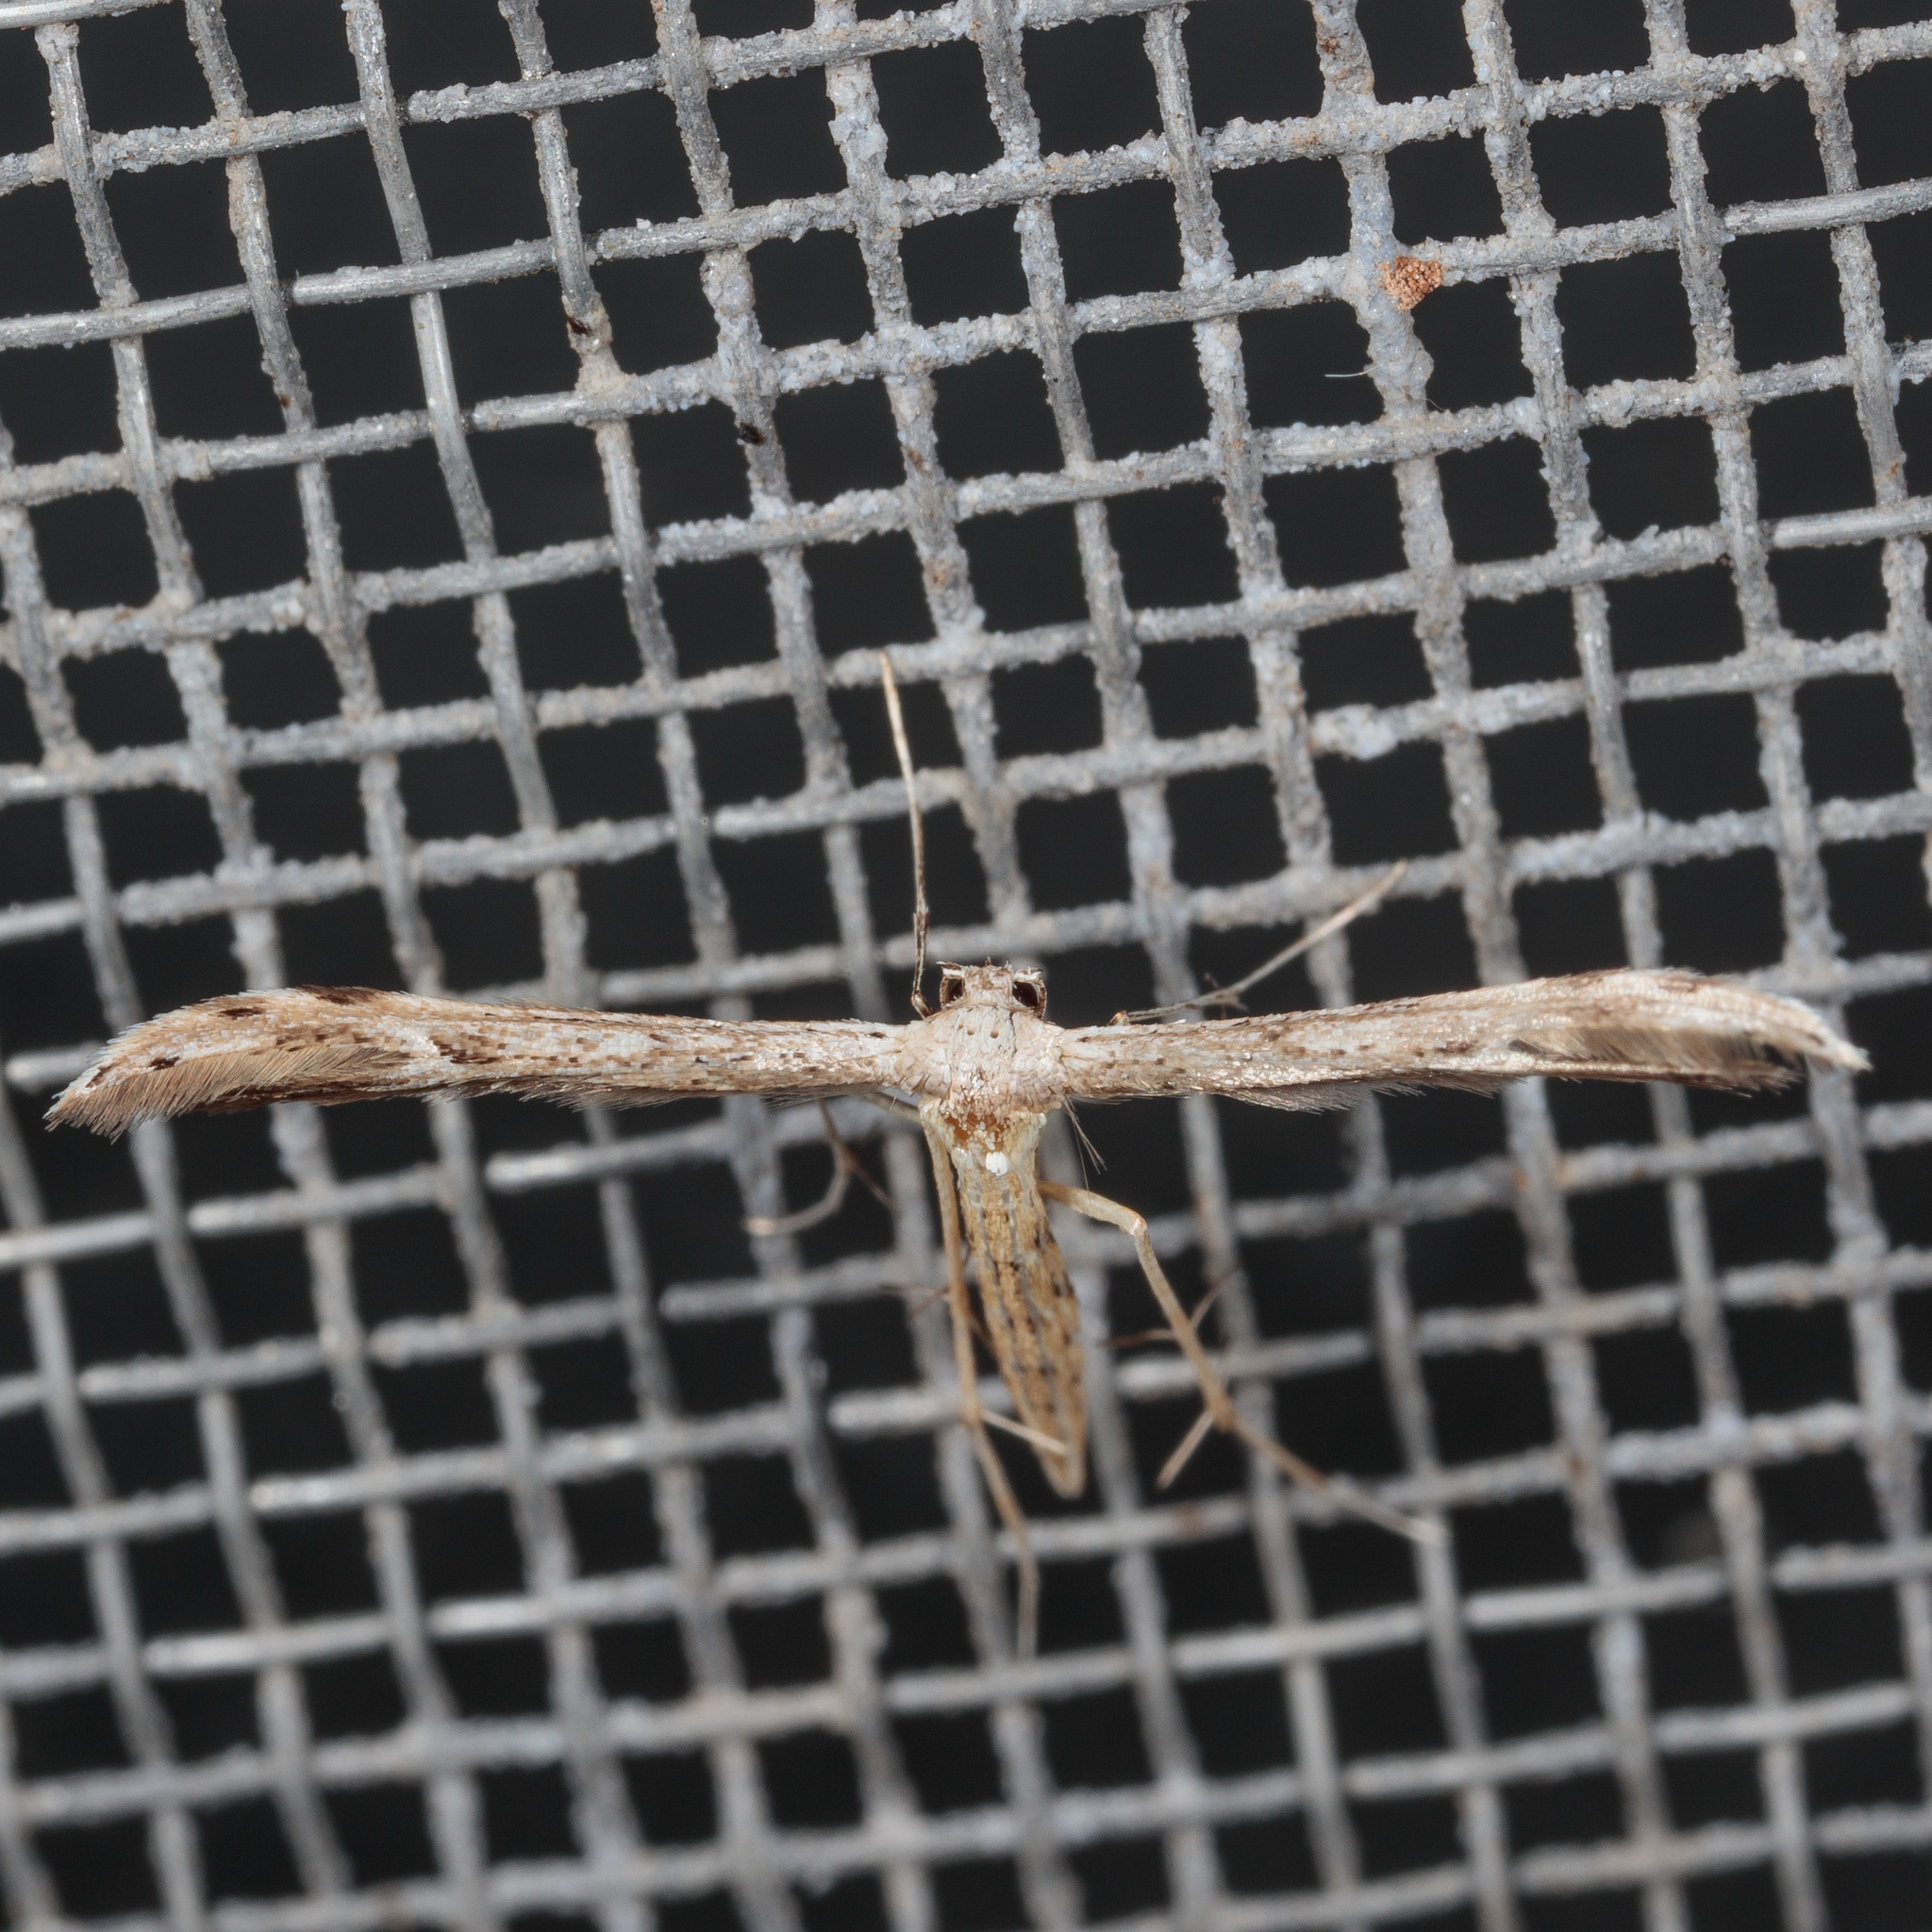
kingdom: Animalia
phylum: Arthropoda
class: Insecta
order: Lepidoptera
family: Pterophoridae
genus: Pselnophorus
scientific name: Pselnophorus belfragei
